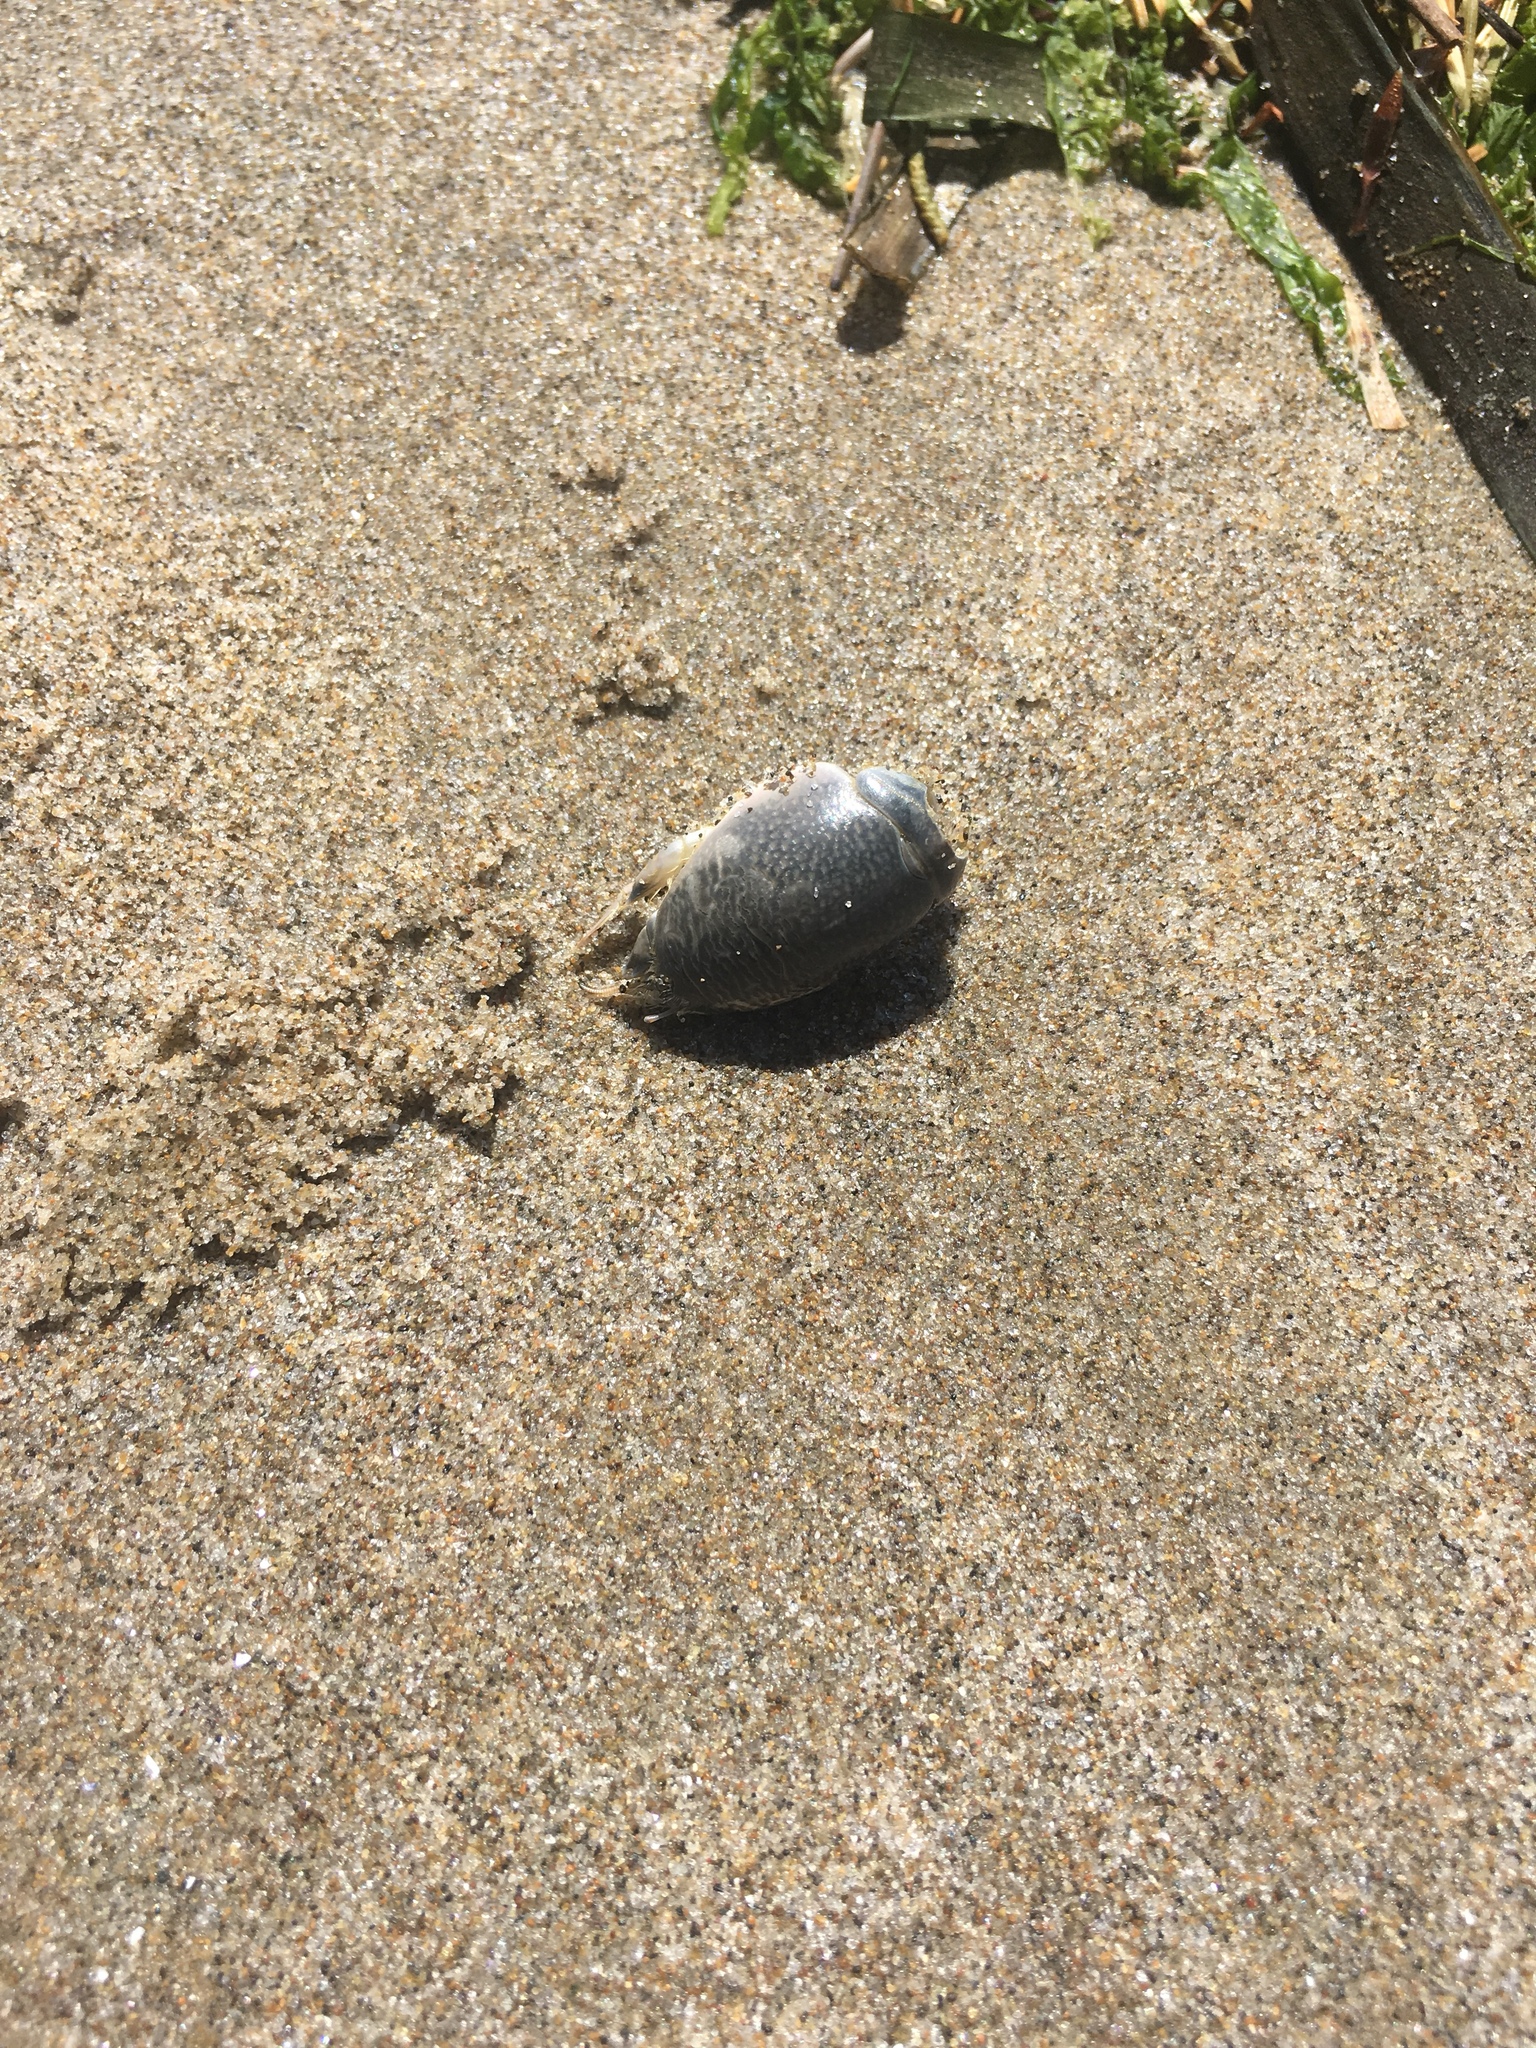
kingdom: Animalia
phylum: Arthropoda
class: Malacostraca
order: Decapoda
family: Hippidae
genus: Emerita
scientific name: Emerita analoga
